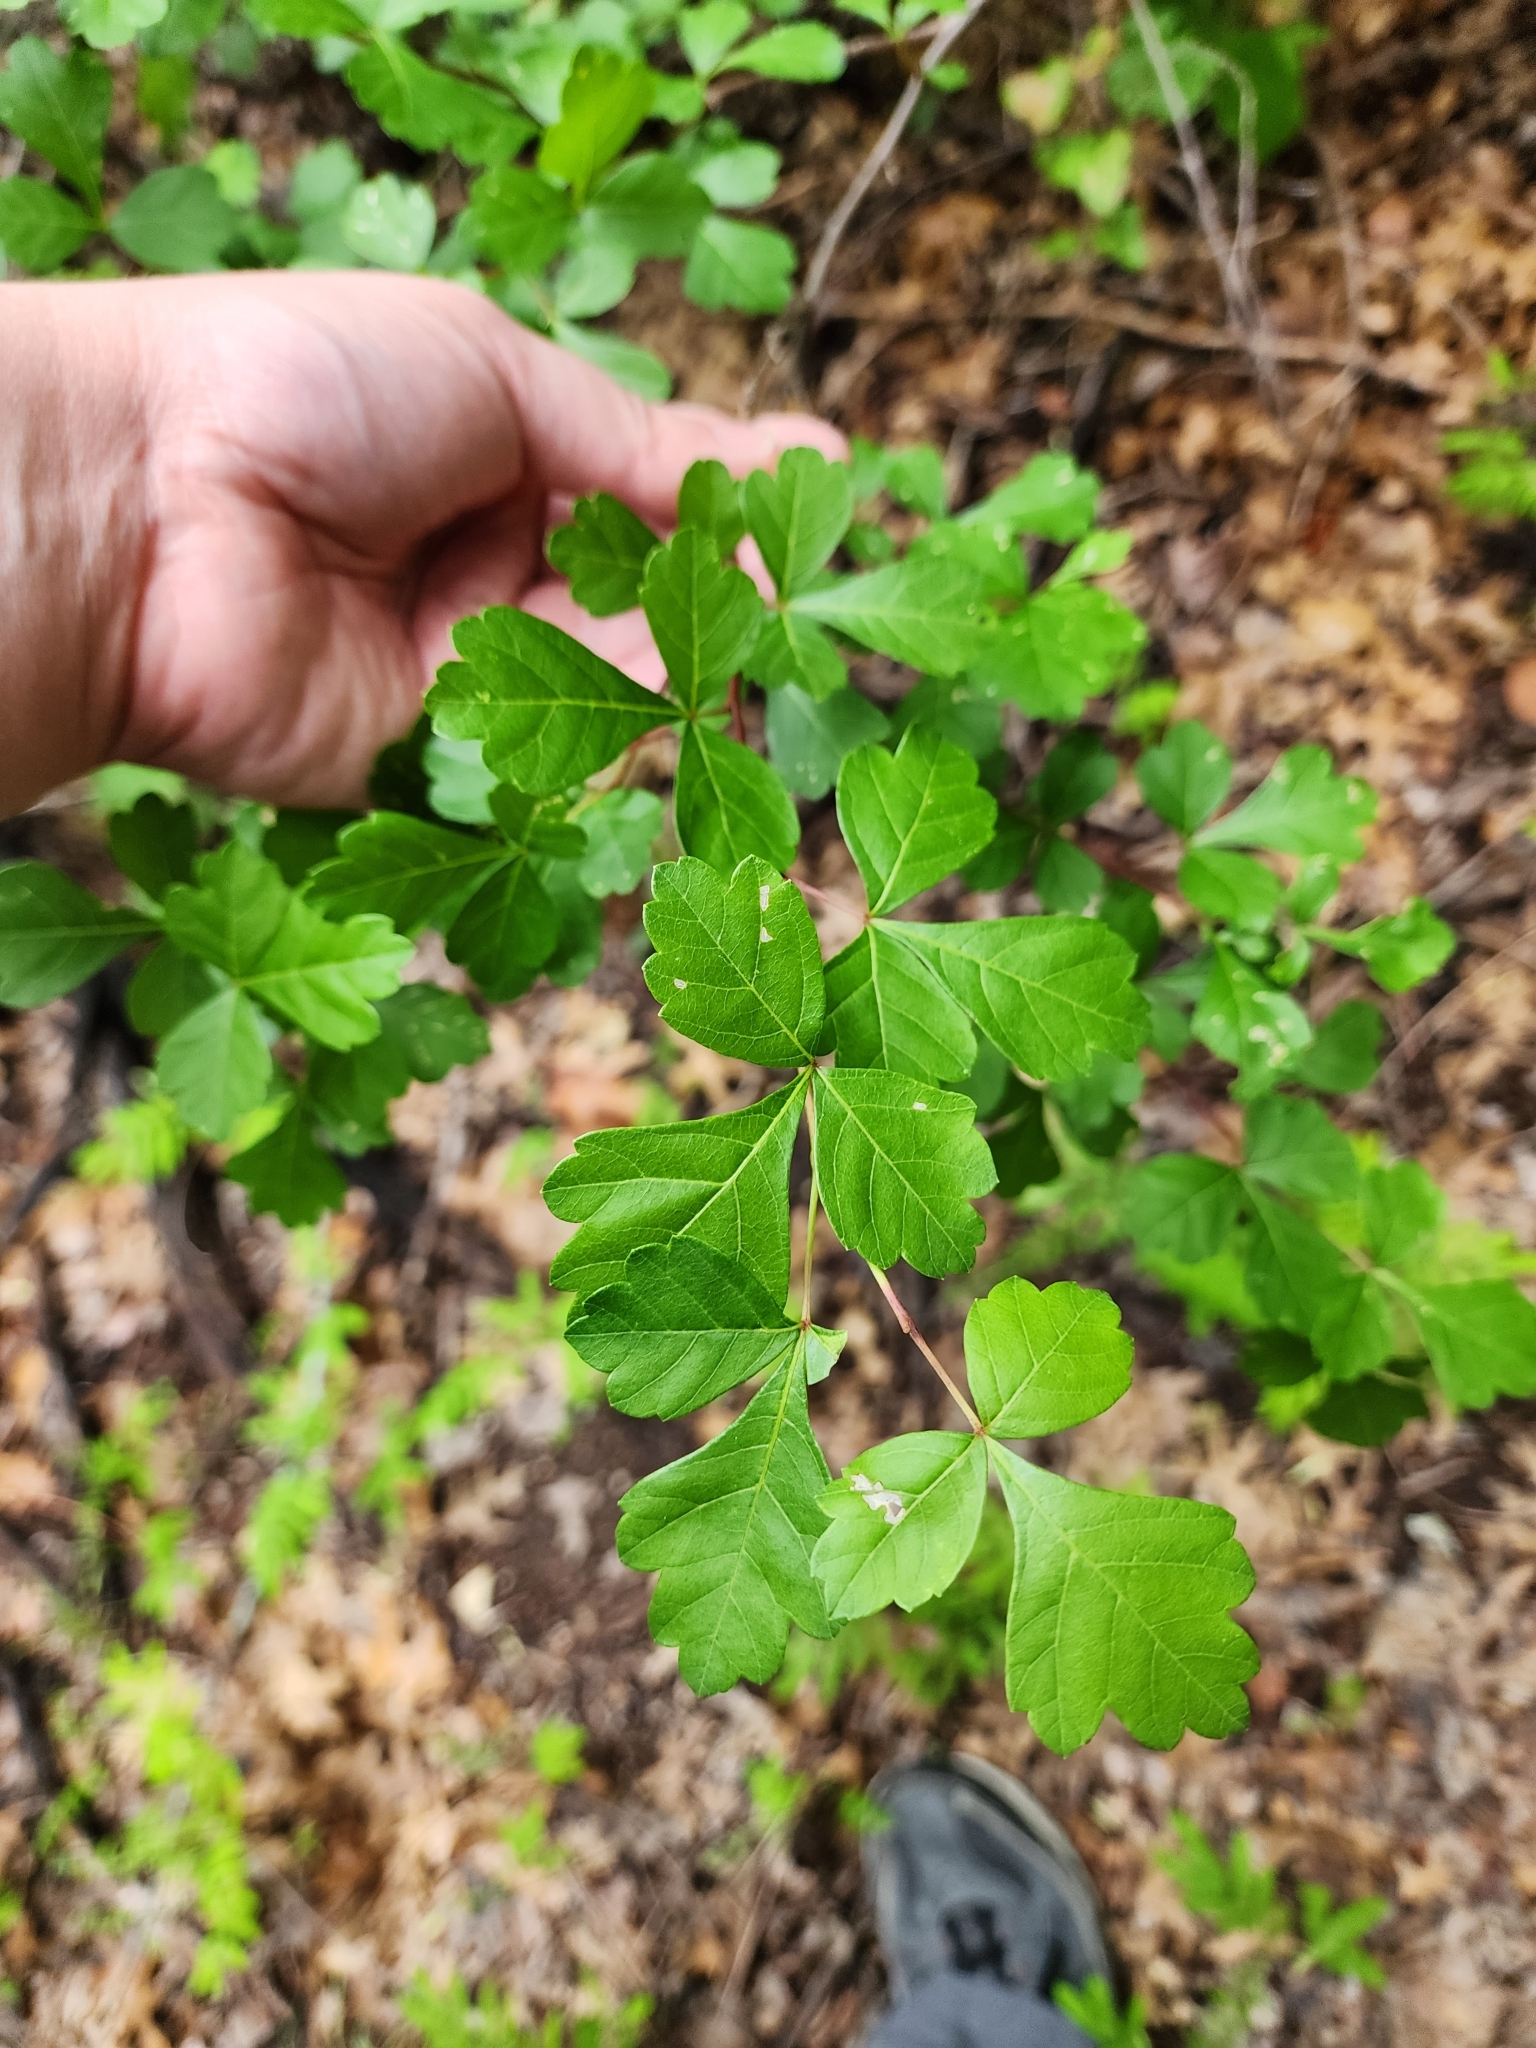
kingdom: Plantae
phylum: Tracheophyta
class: Magnoliopsida
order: Sapindales
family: Anacardiaceae
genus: Rhus
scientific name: Rhus aromatica
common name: Aromatic sumac
